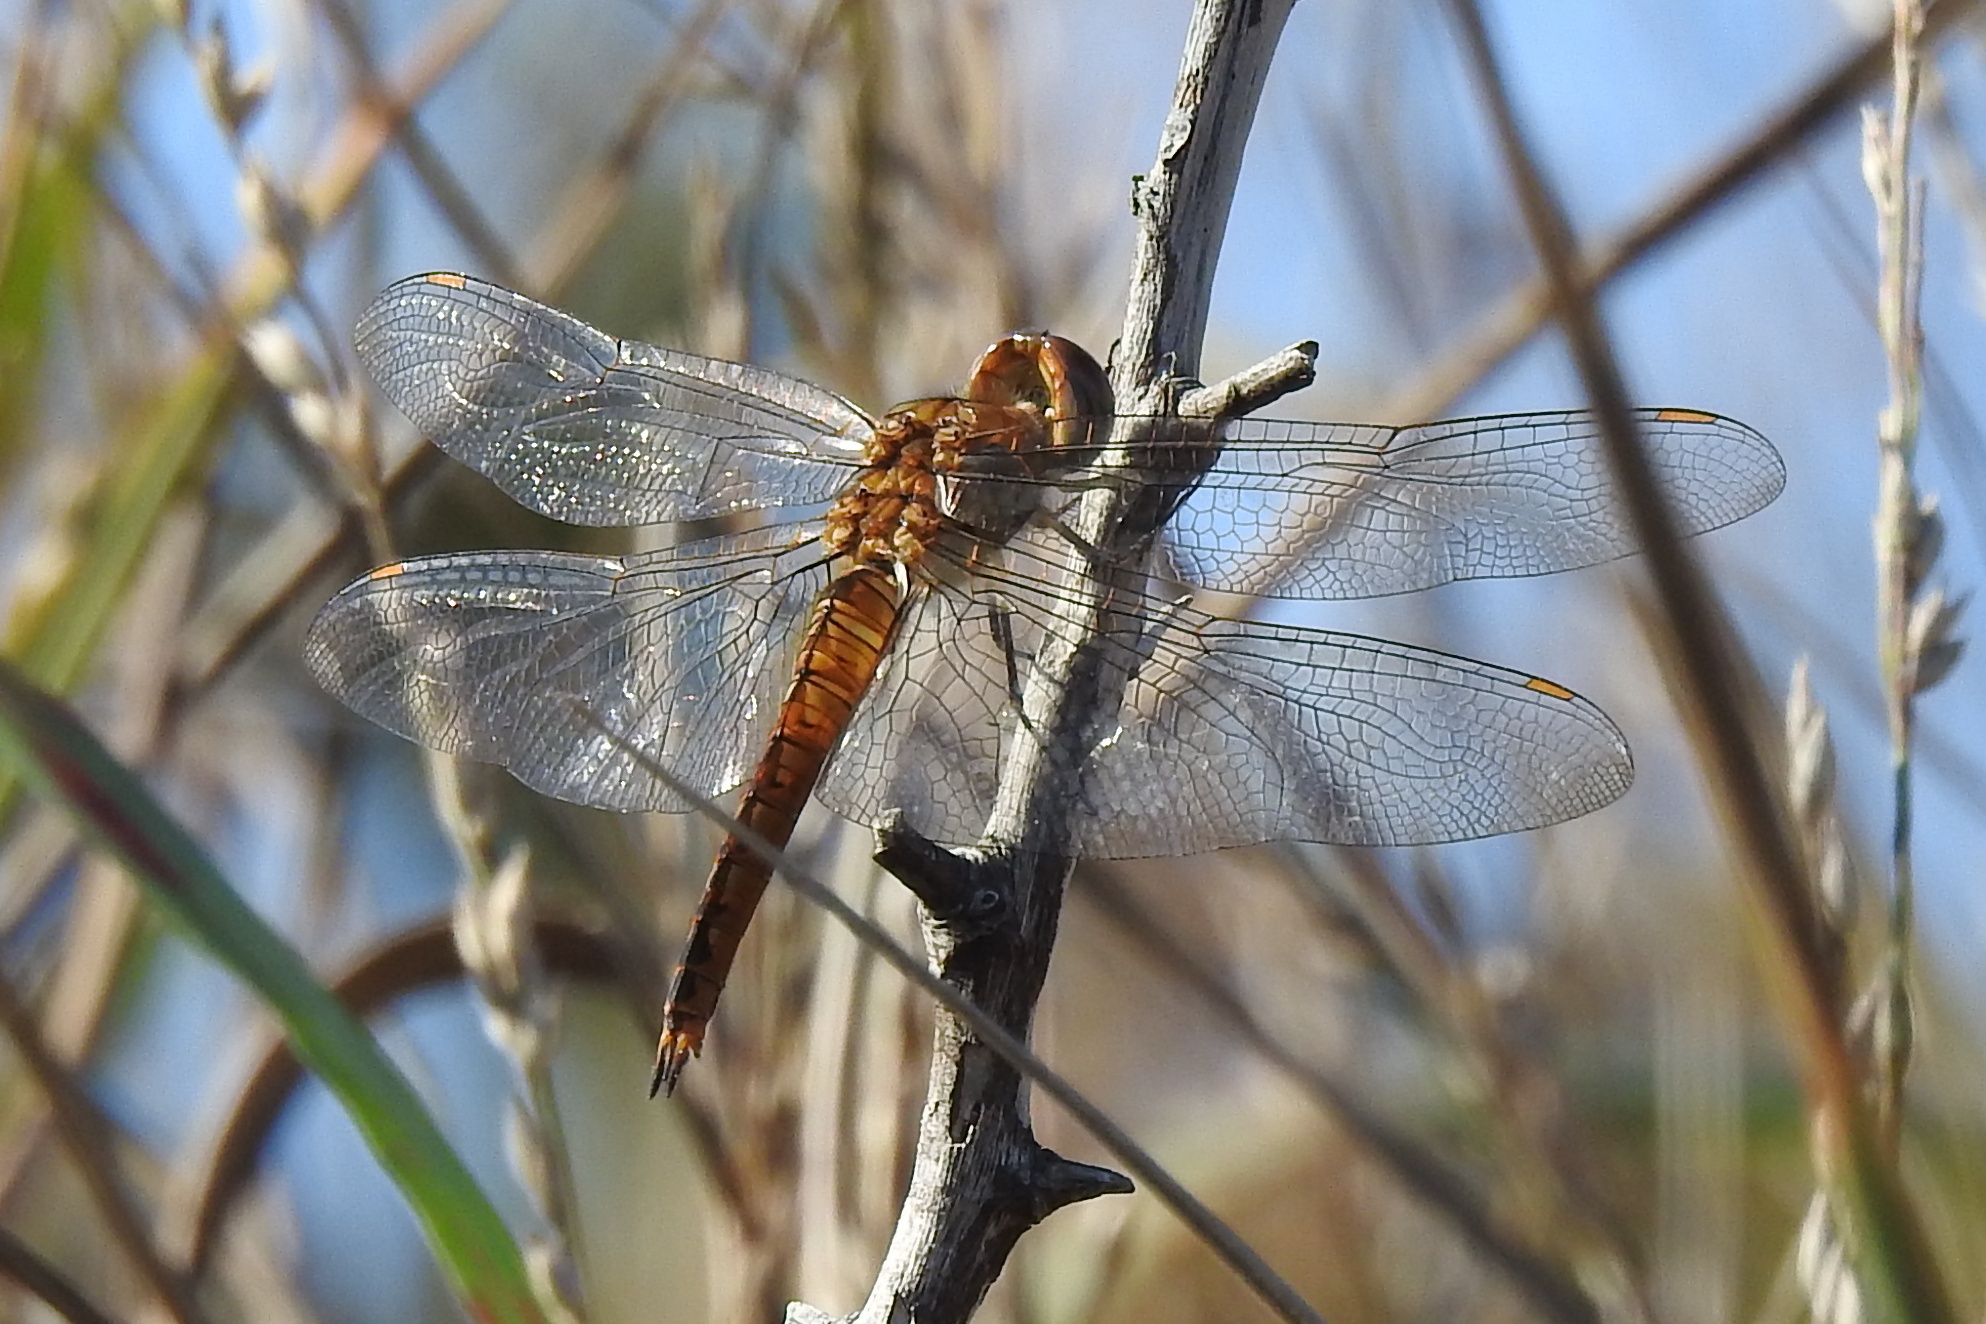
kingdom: Animalia
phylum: Arthropoda
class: Insecta
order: Odonata
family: Libellulidae
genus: Pantala
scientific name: Pantala flavescens
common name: Wandering glider
